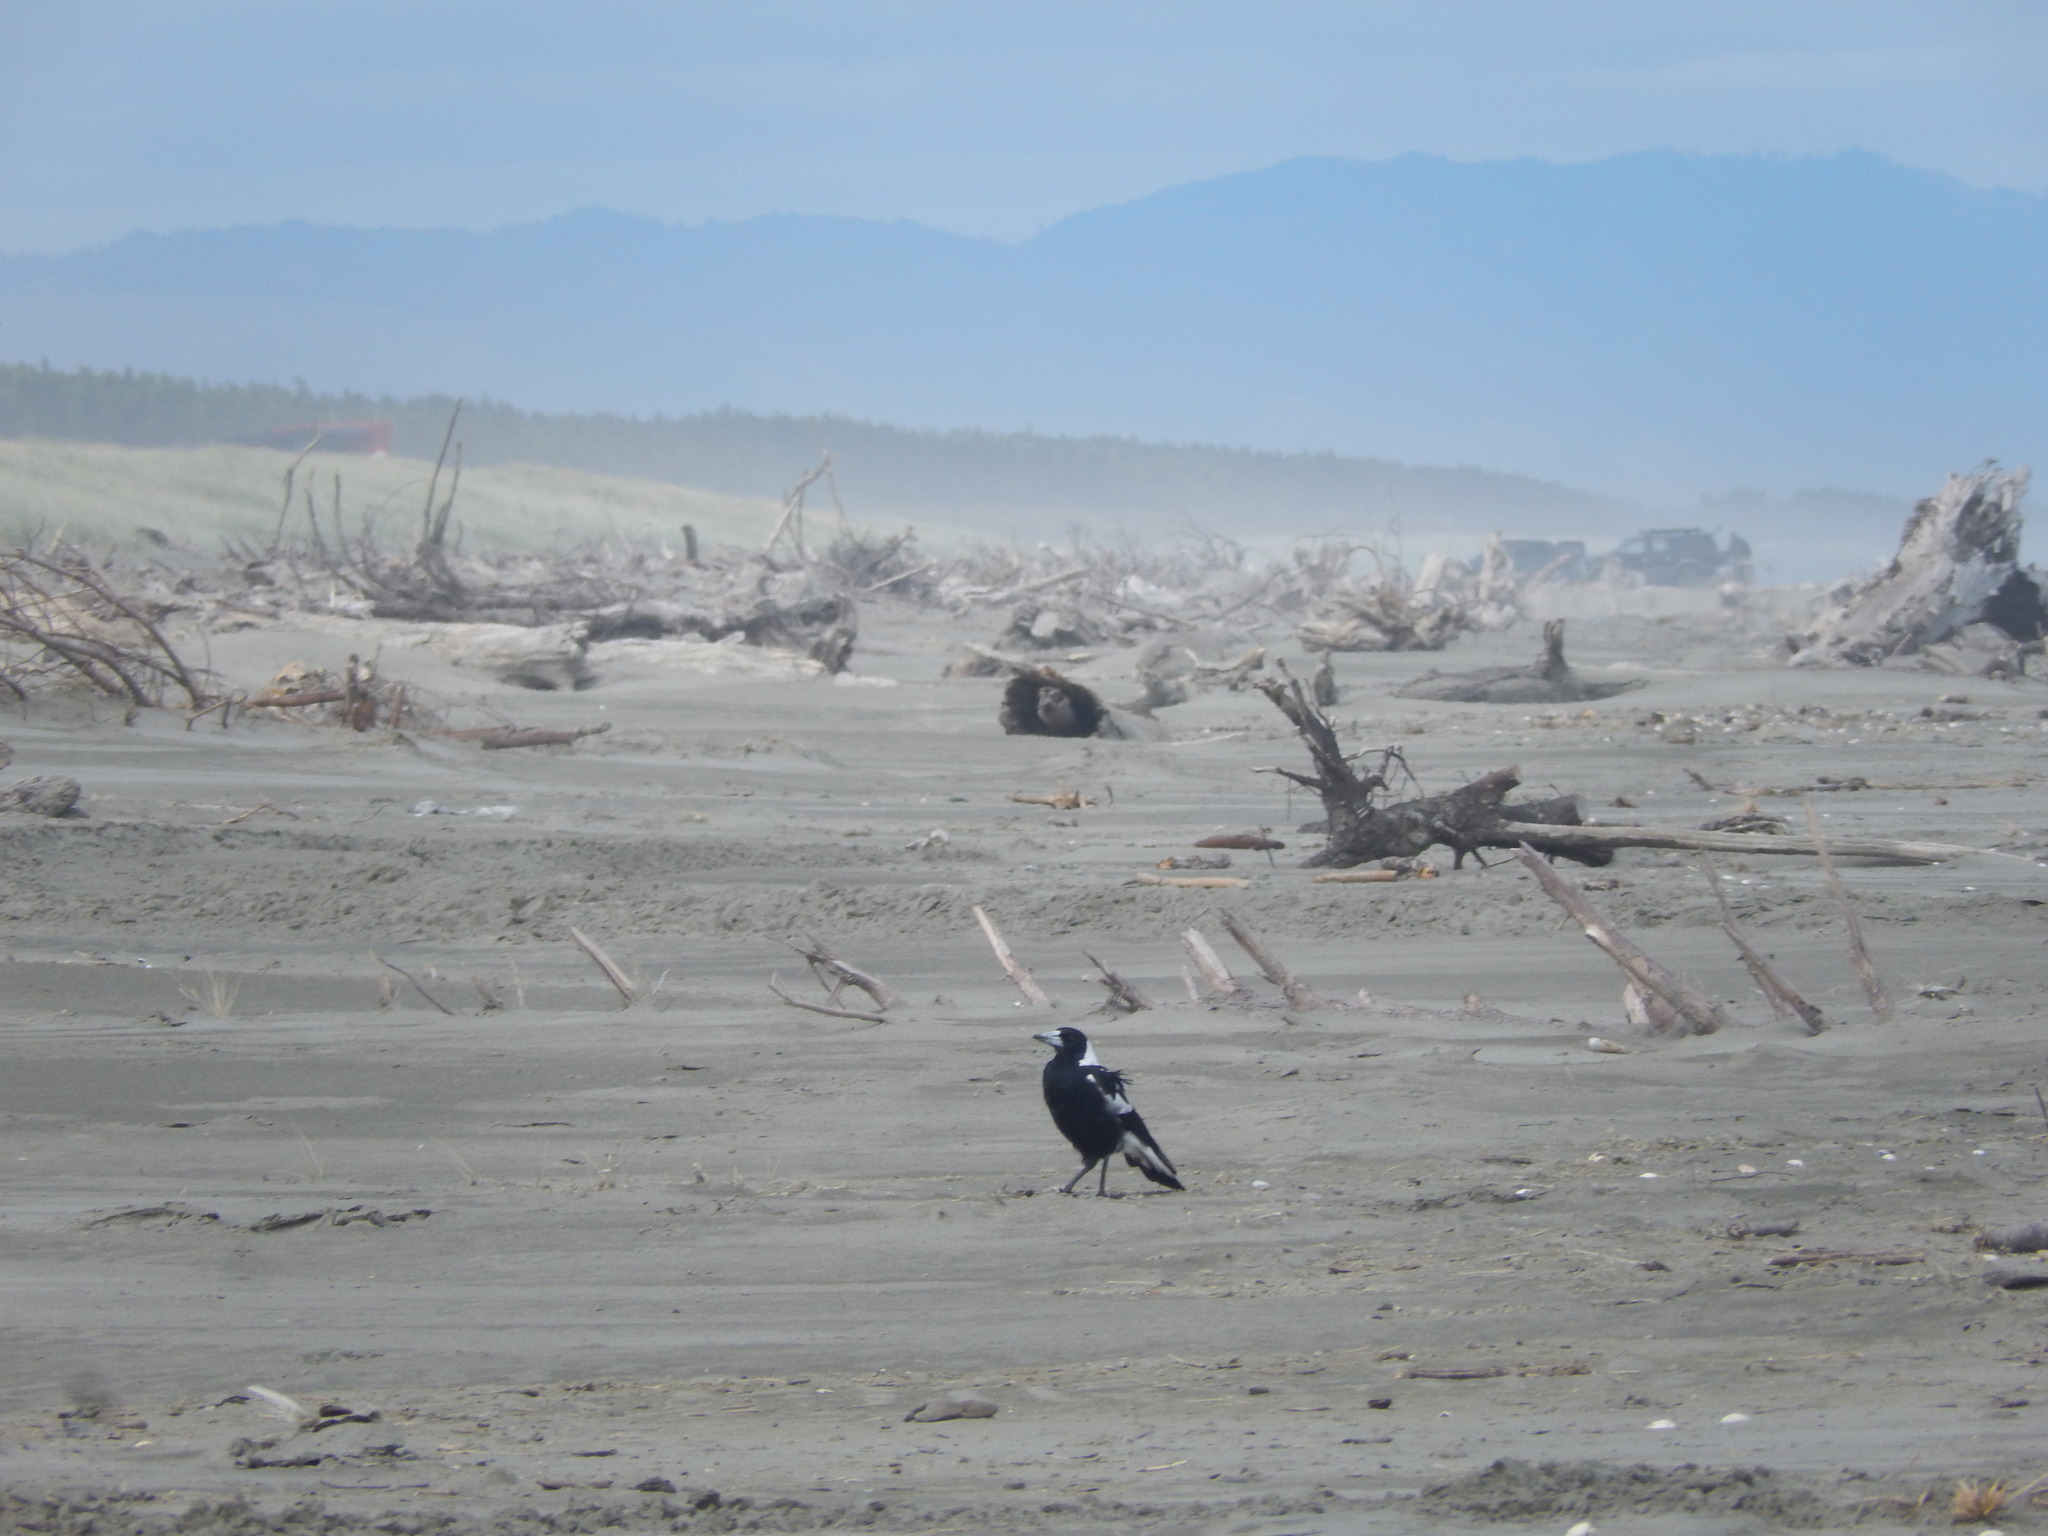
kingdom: Animalia
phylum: Chordata
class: Aves
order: Passeriformes
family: Cracticidae
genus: Gymnorhina
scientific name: Gymnorhina tibicen
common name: Australian magpie
